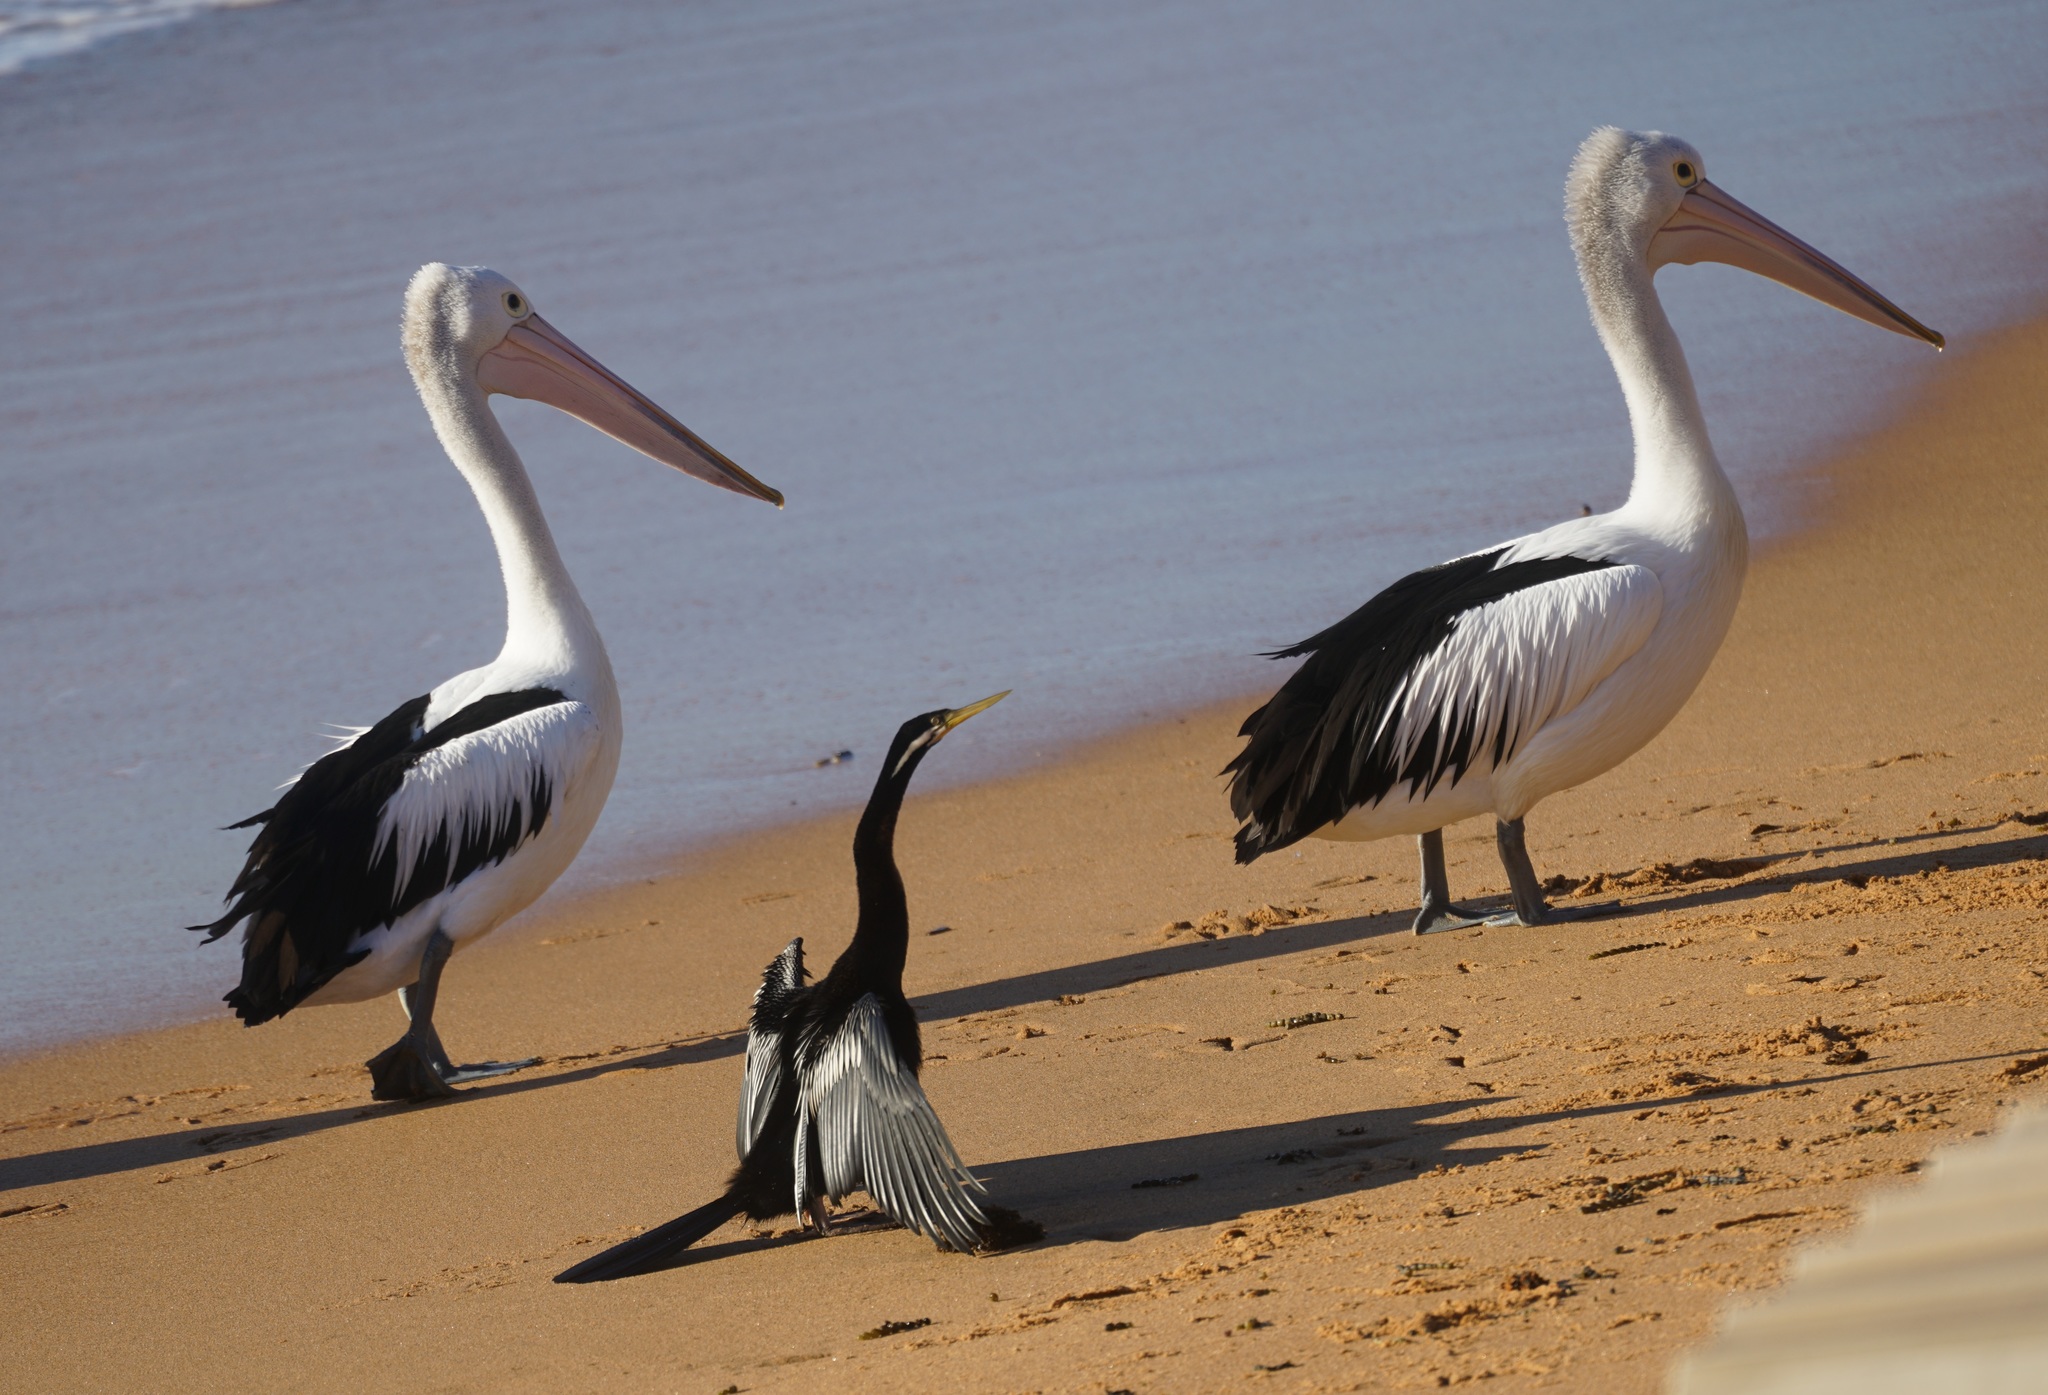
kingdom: Animalia
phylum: Chordata
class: Aves
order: Suliformes
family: Anhingidae
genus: Anhinga
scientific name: Anhinga novaehollandiae
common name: Australasian darter
